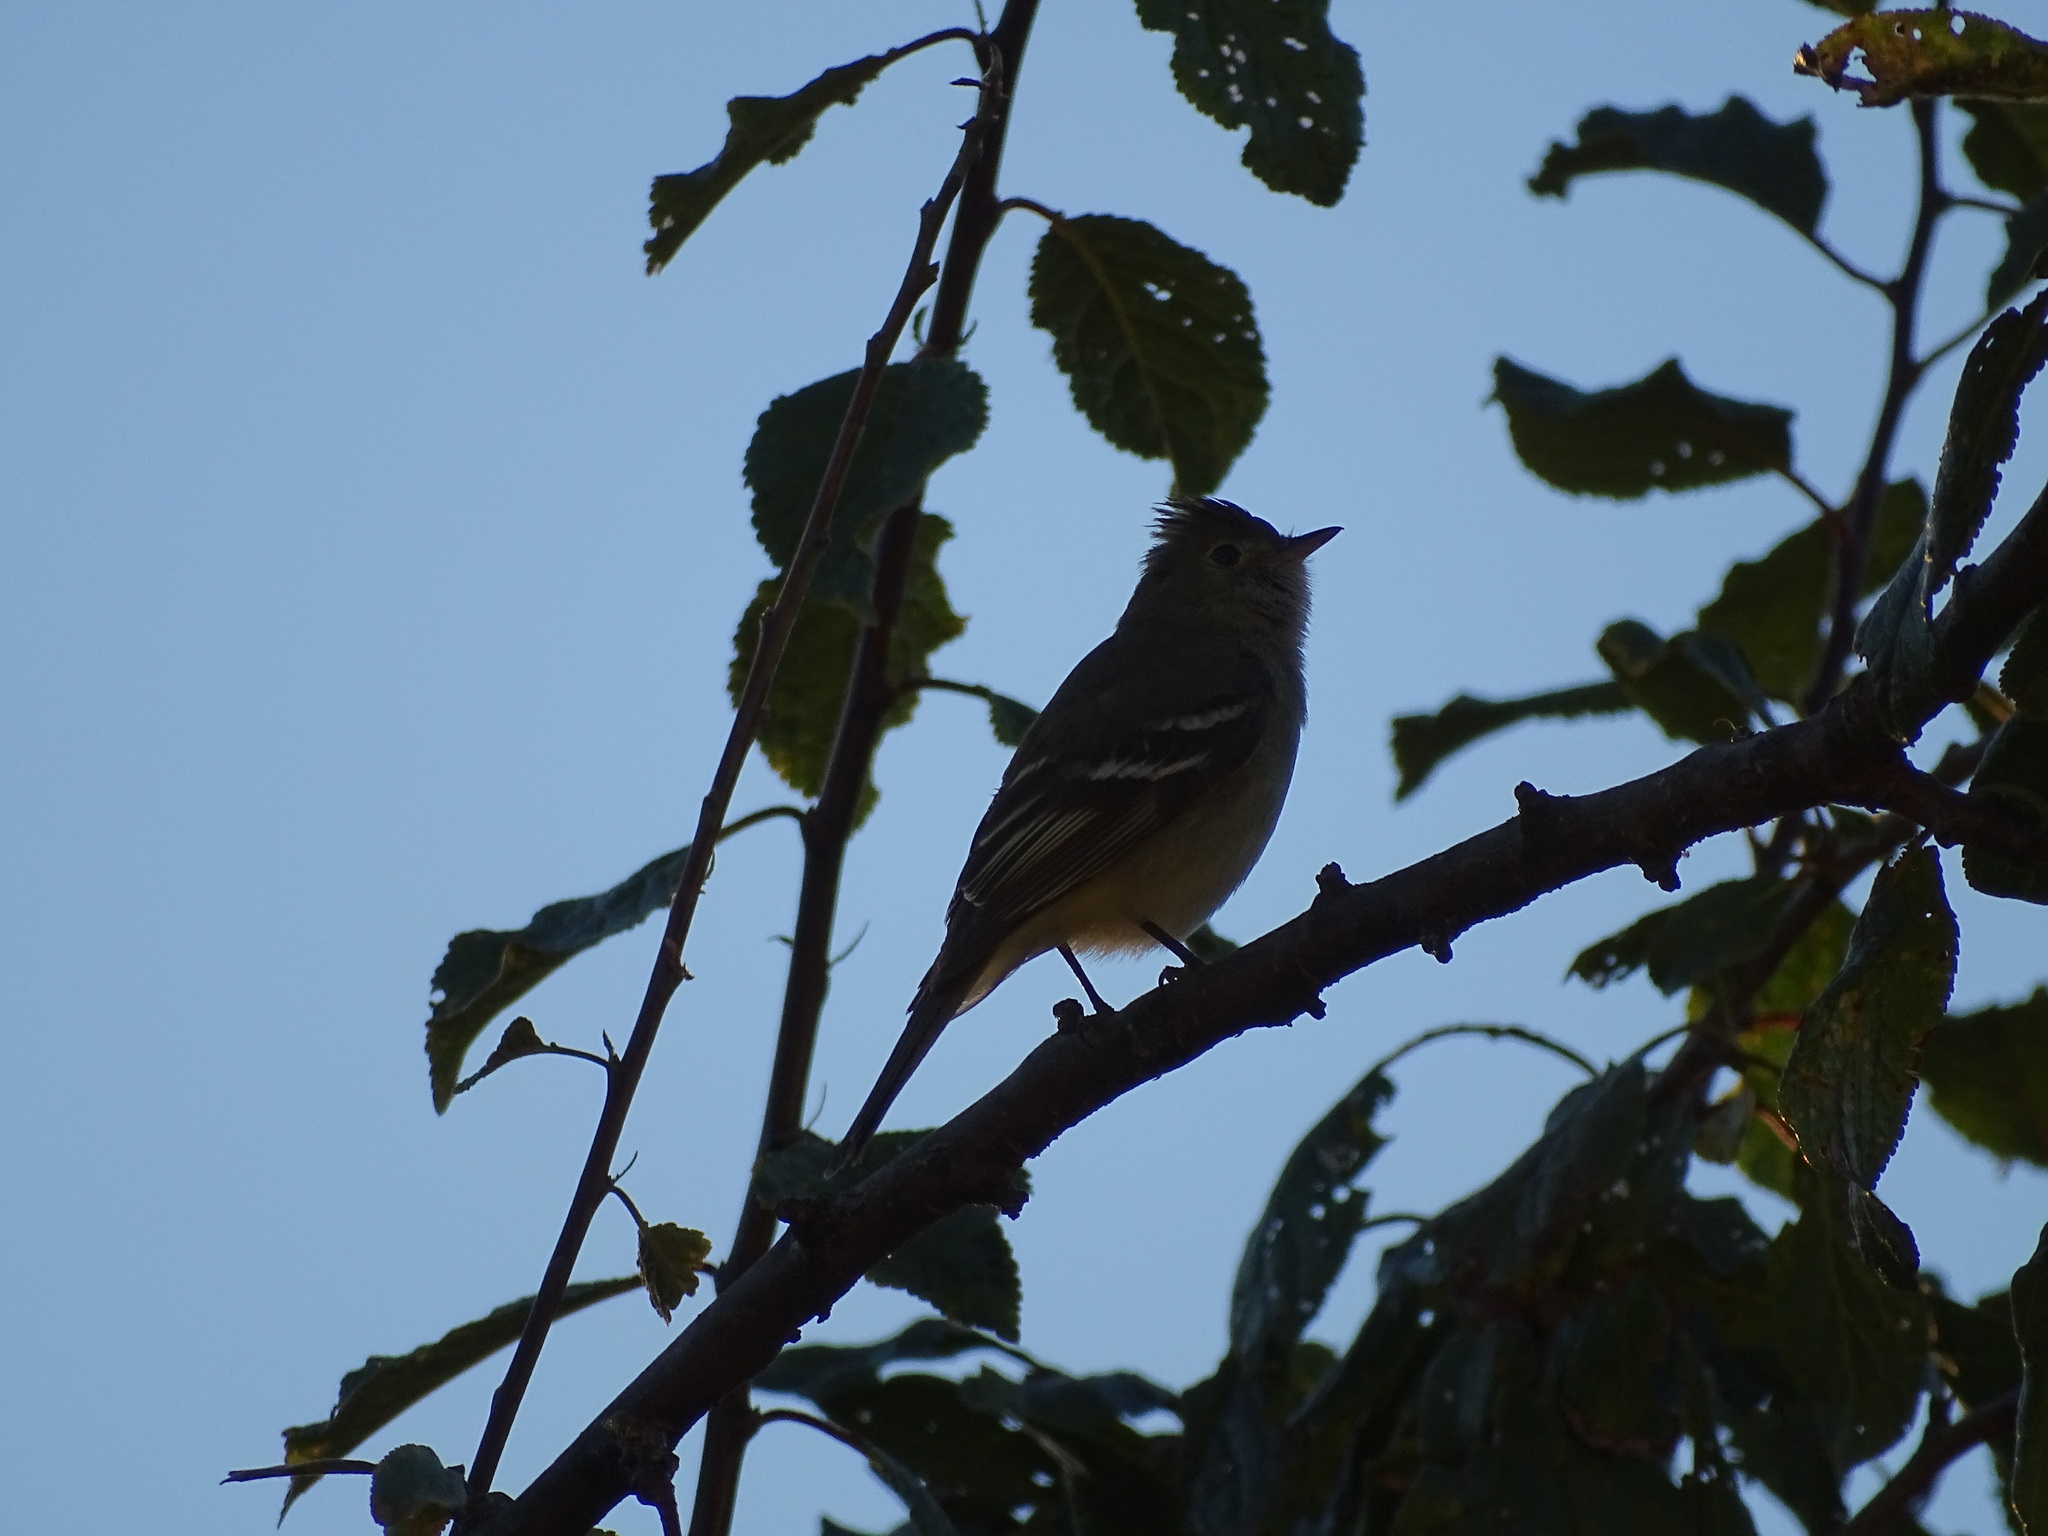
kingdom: Animalia
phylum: Chordata
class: Aves
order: Passeriformes
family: Tyrannidae
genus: Elaenia
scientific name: Elaenia albiceps
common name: White-crested elaenia
